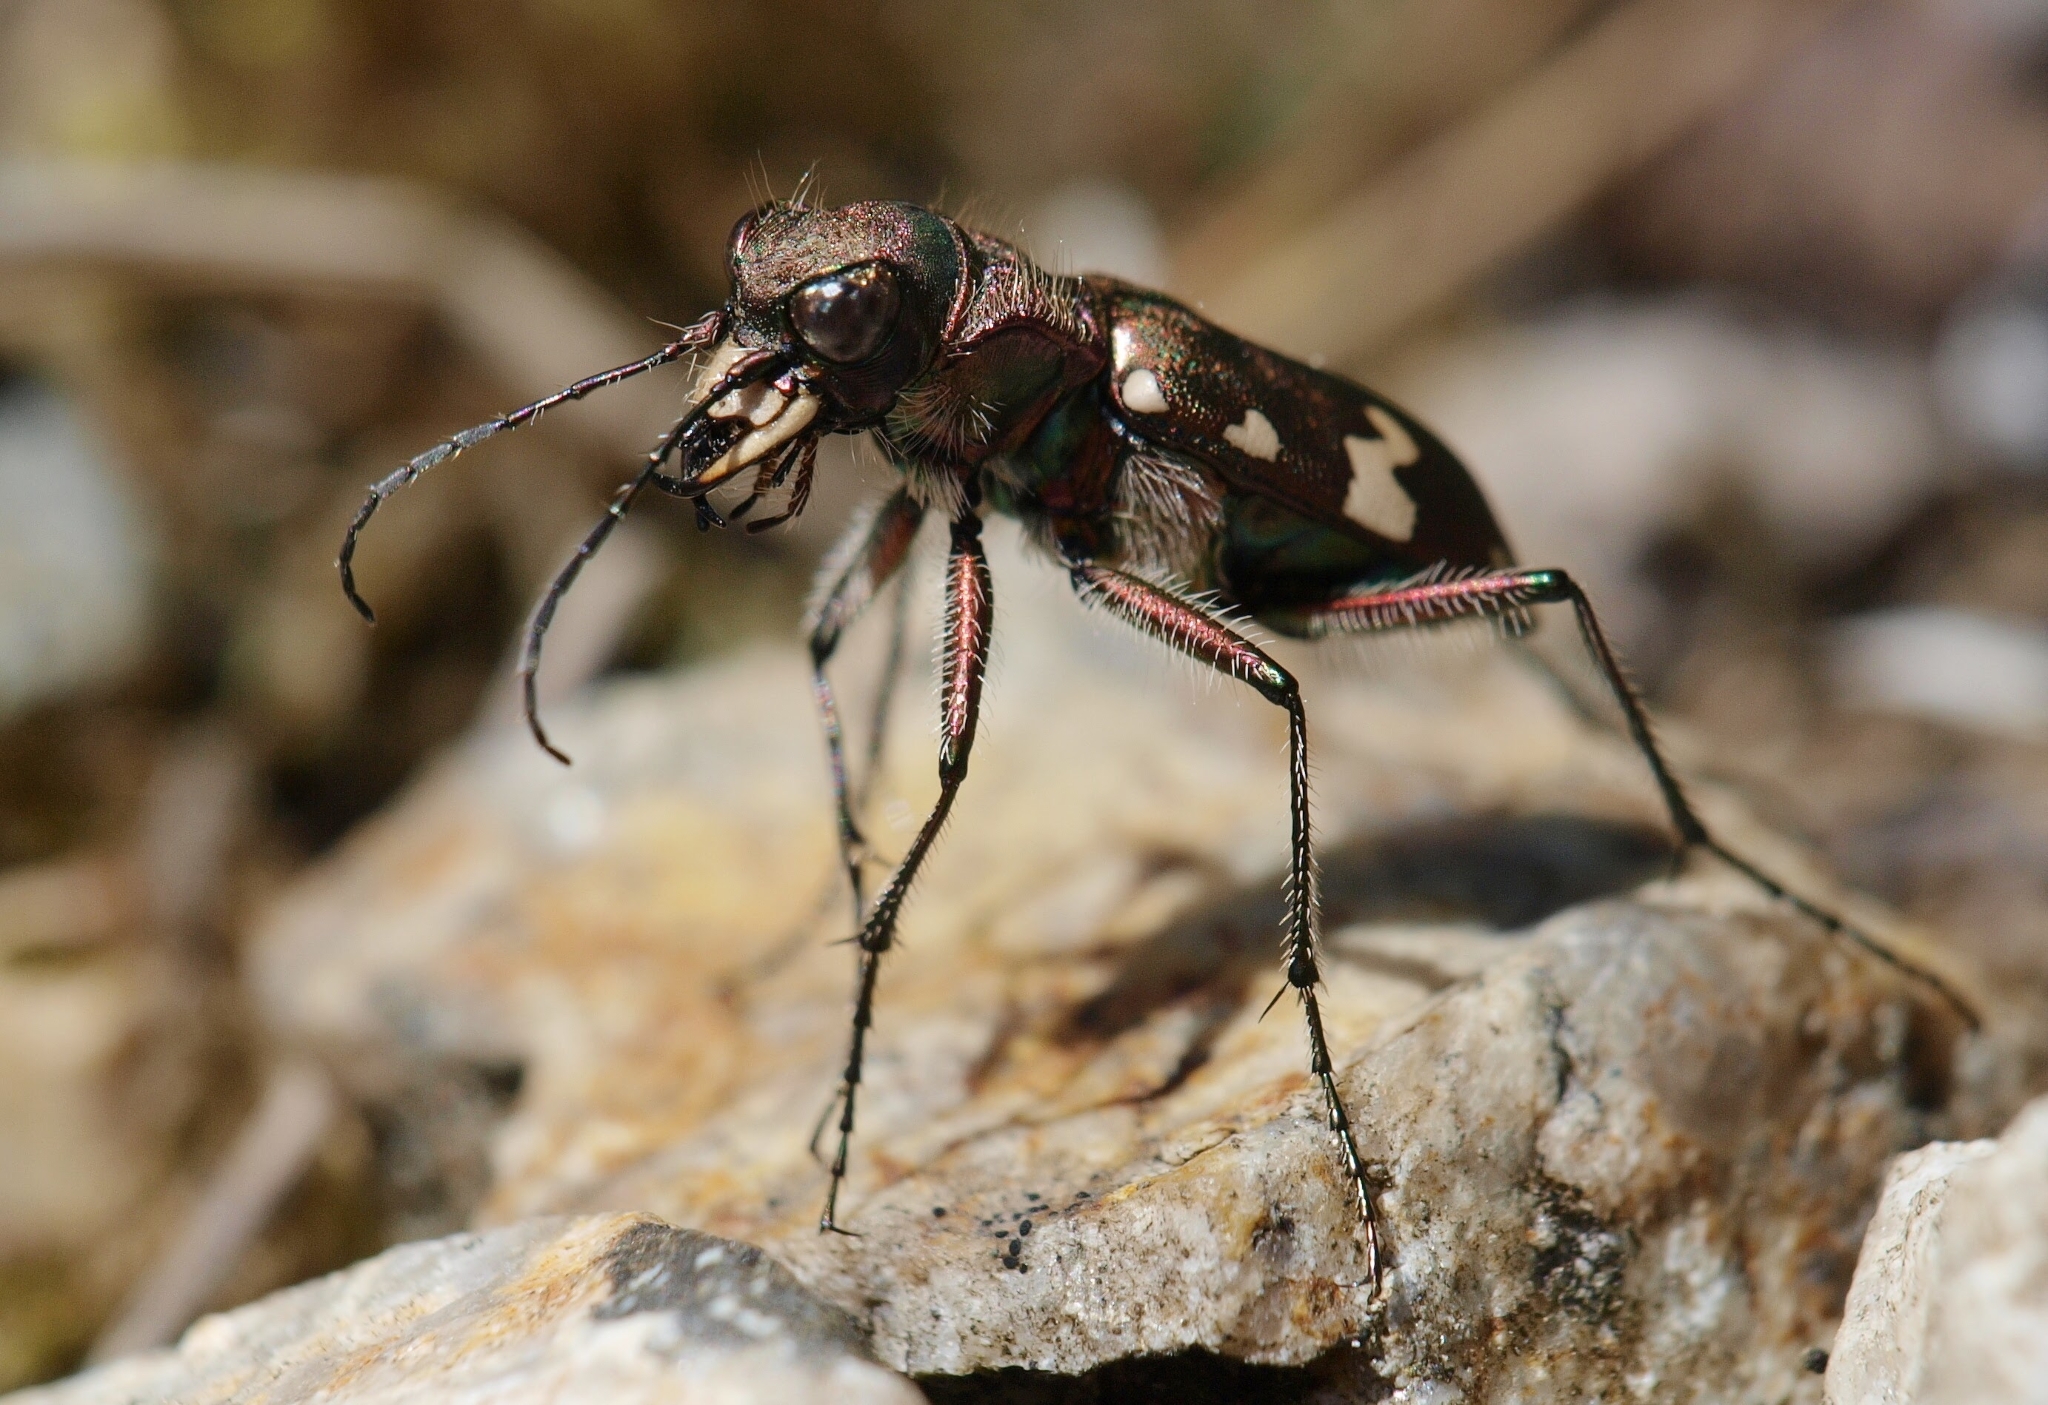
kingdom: Animalia
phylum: Arthropoda
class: Insecta
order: Coleoptera
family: Carabidae
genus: Cicindela
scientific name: Cicindela sylvicola
